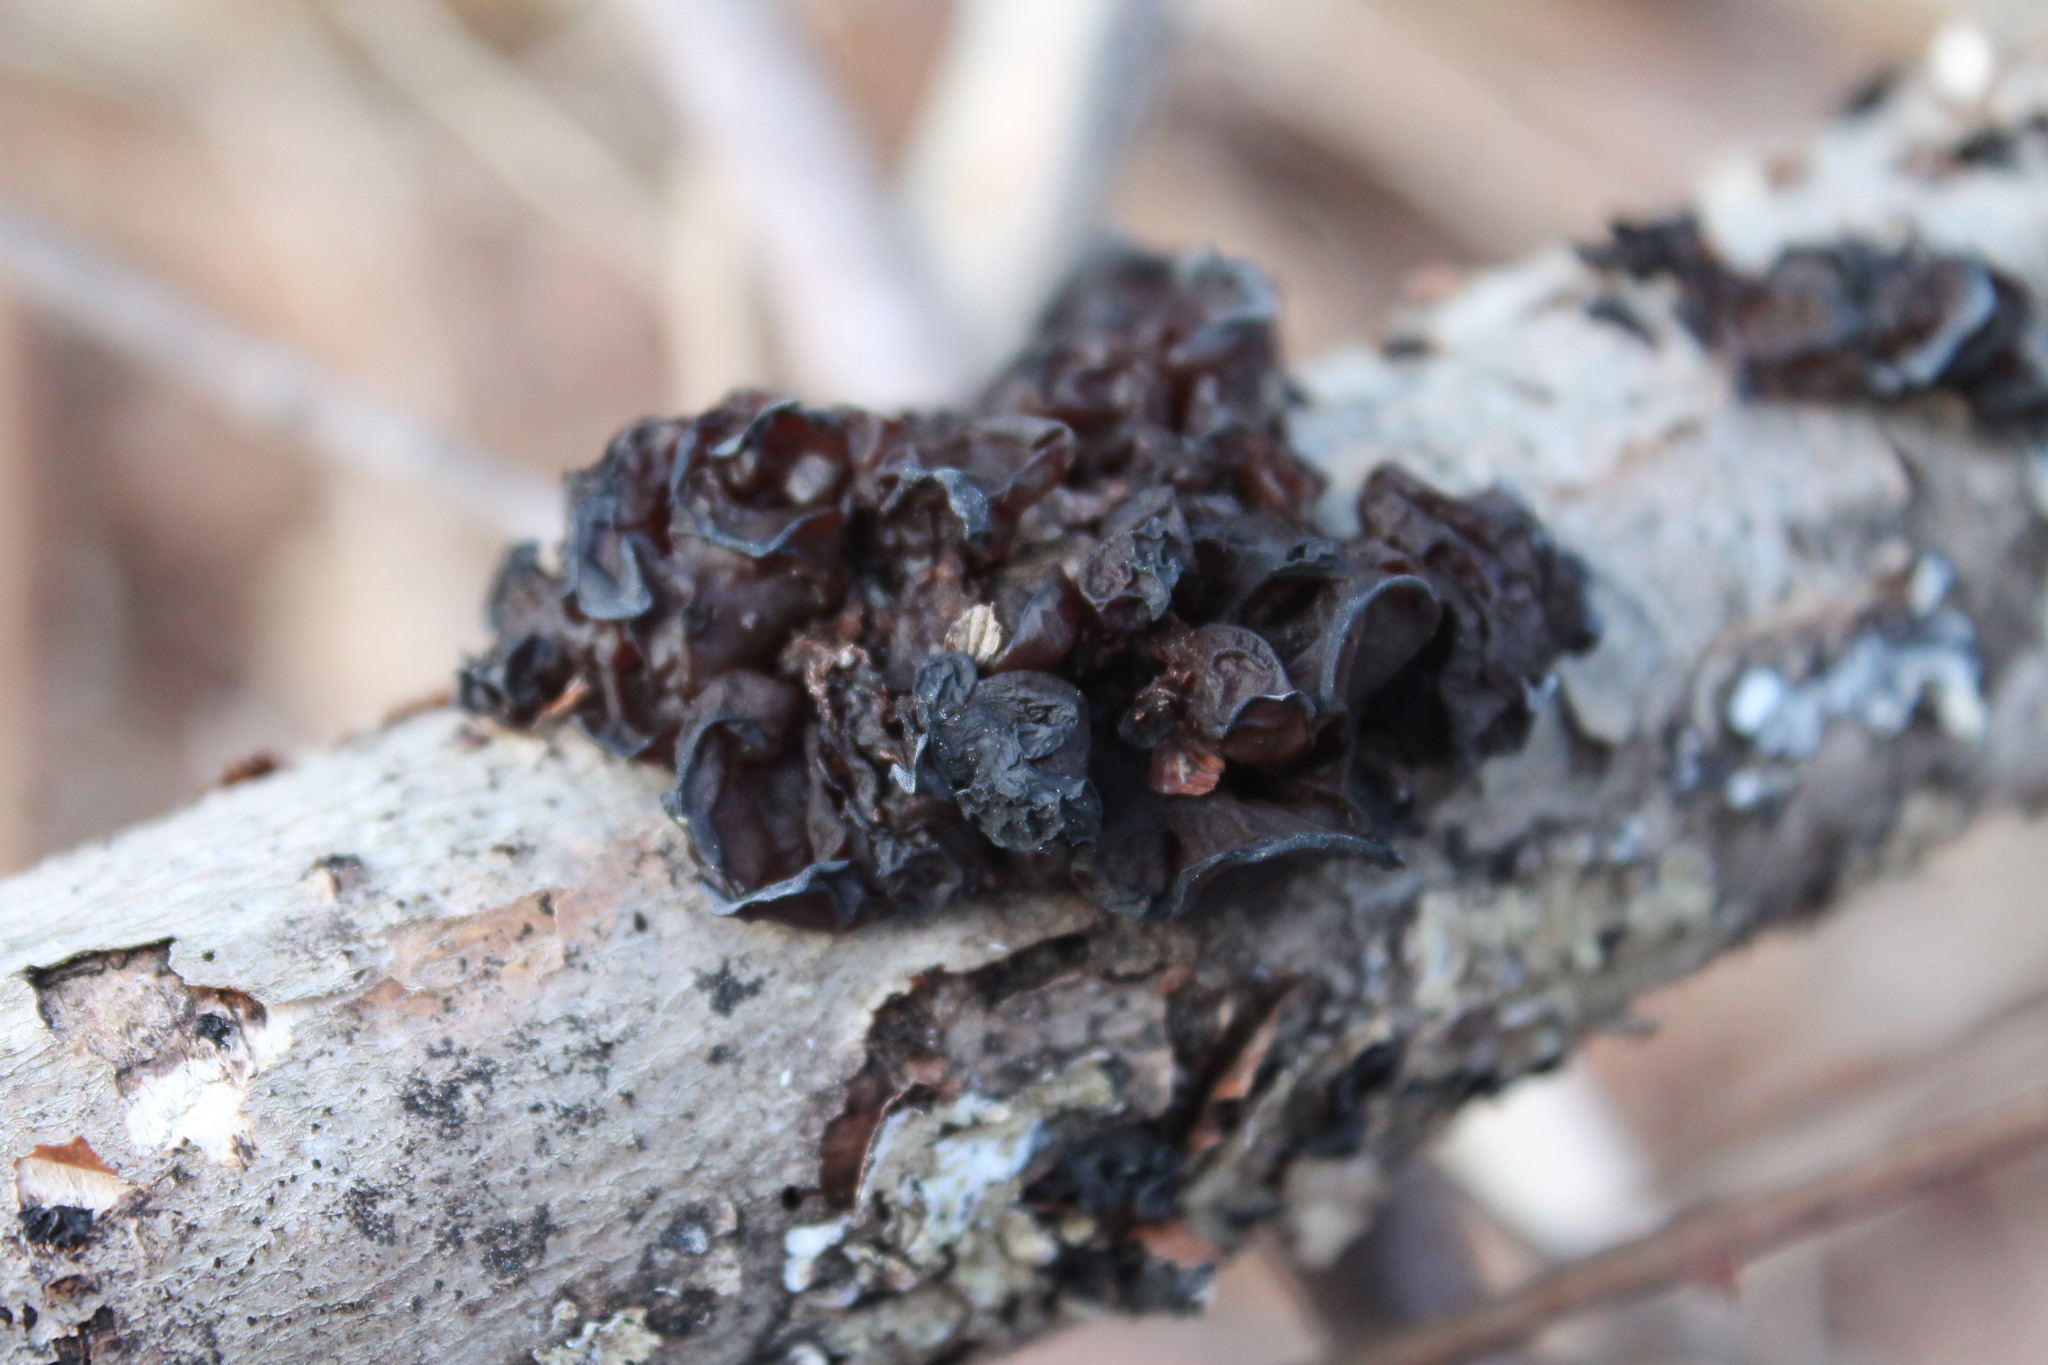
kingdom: Fungi
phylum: Basidiomycota
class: Agaricomycetes
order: Auriculariales
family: Auriculariaceae
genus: Exidia
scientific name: Exidia
